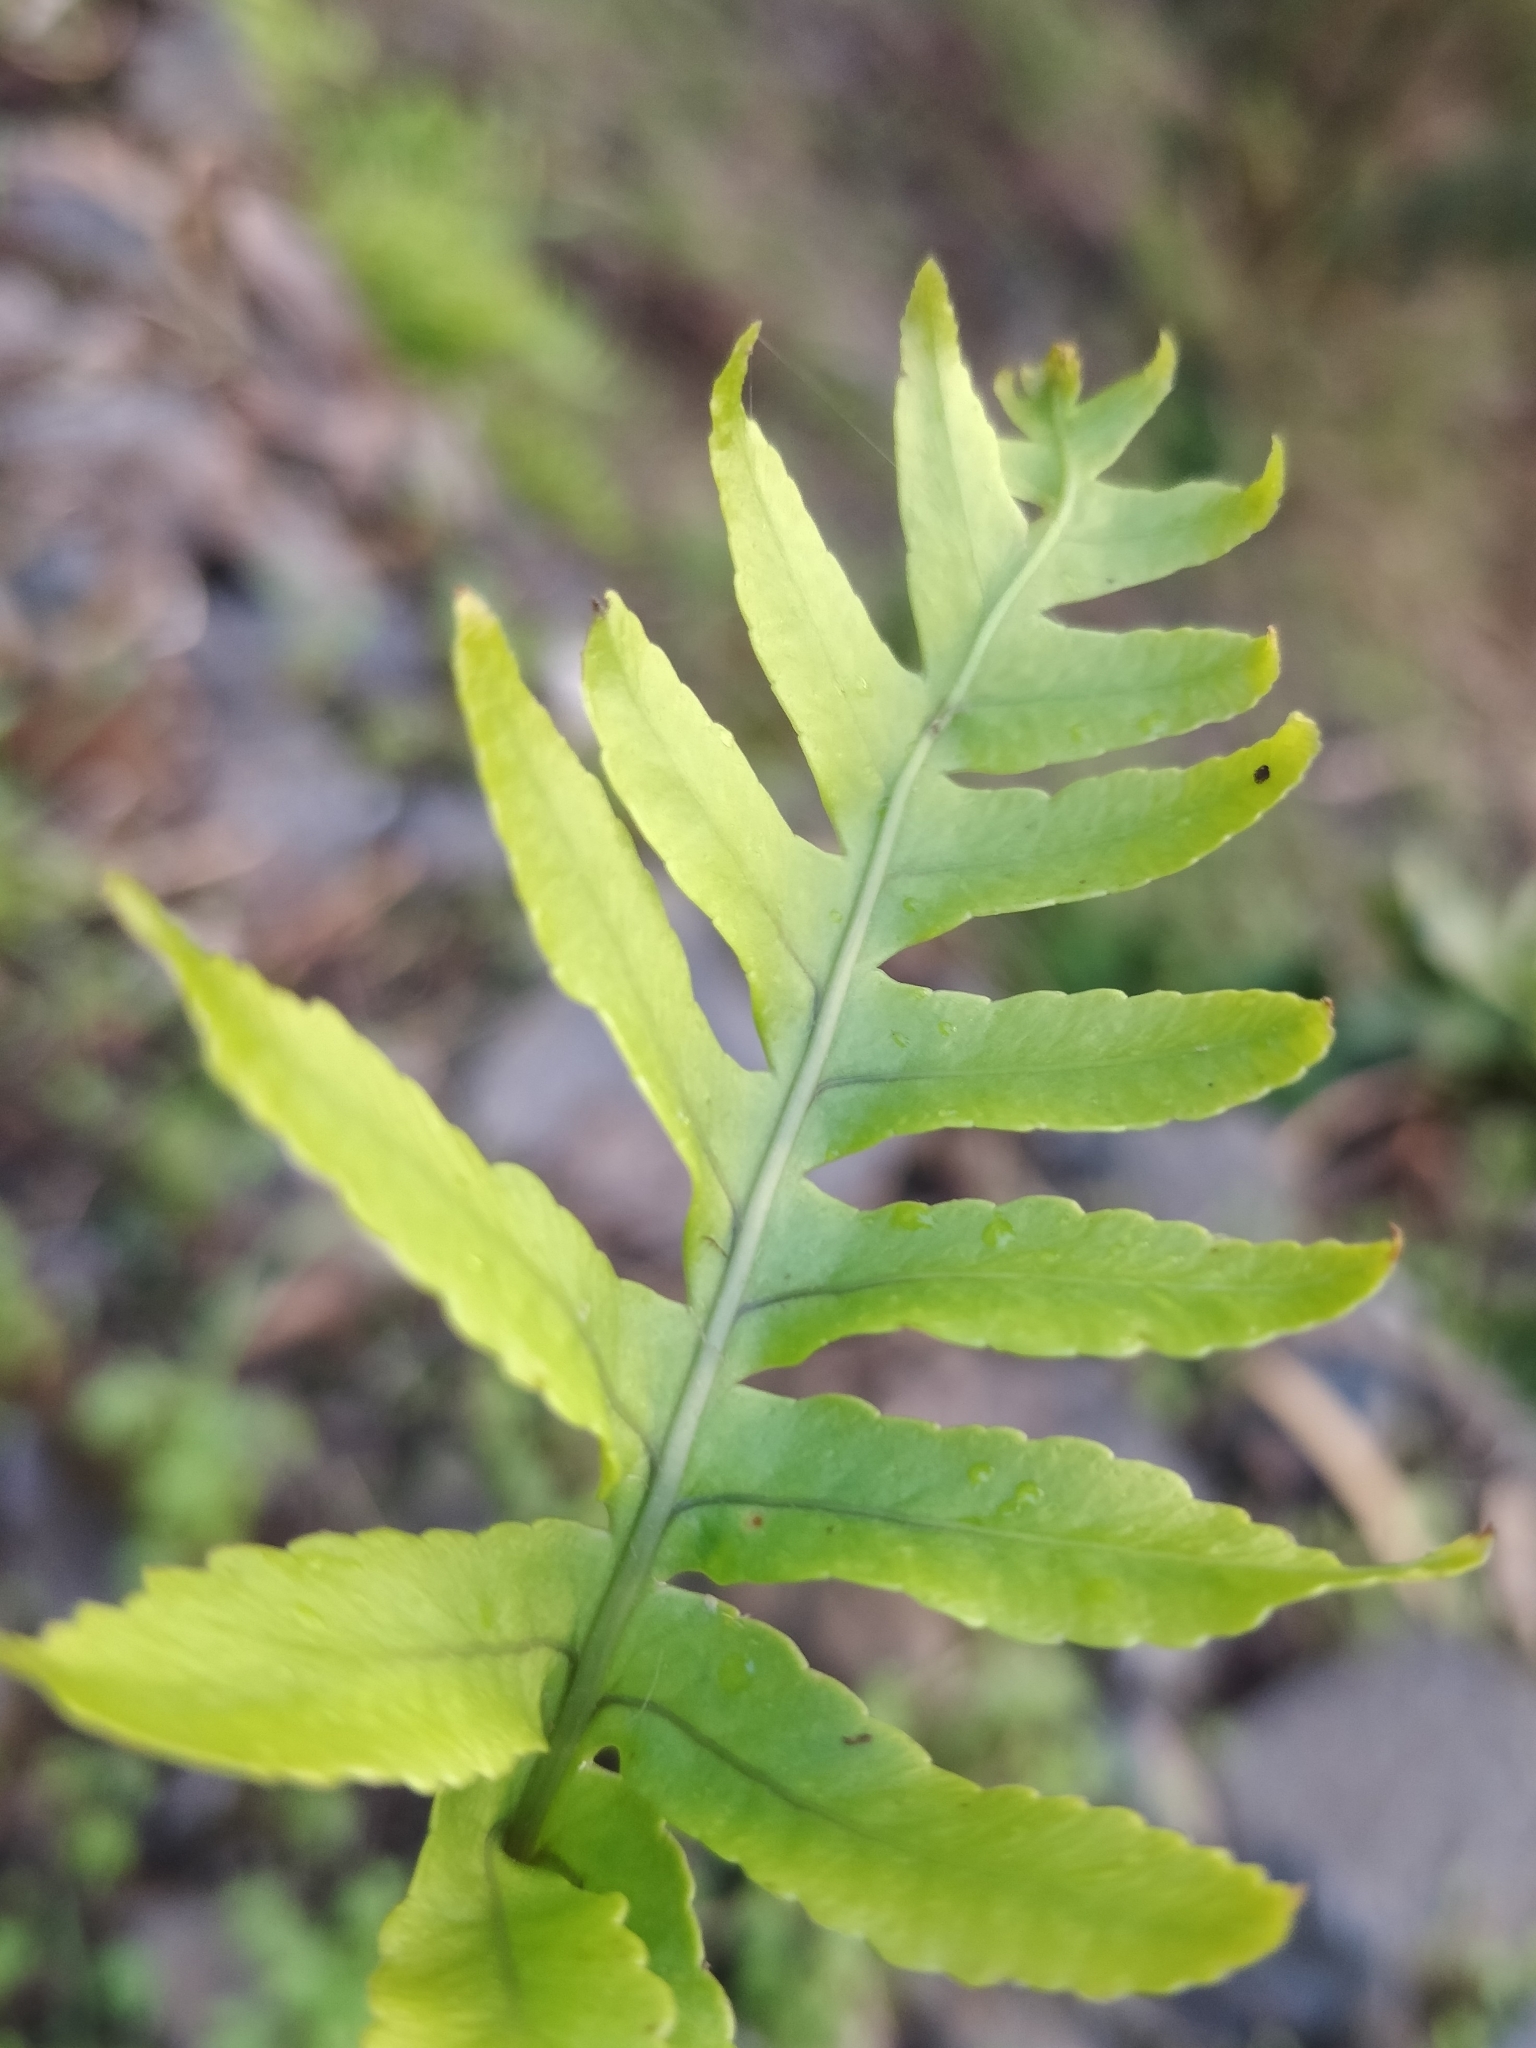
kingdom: Plantae
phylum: Tracheophyta
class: Polypodiopsida
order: Polypodiales
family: Polypodiaceae
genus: Polypodium
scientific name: Polypodium macaronesicum
